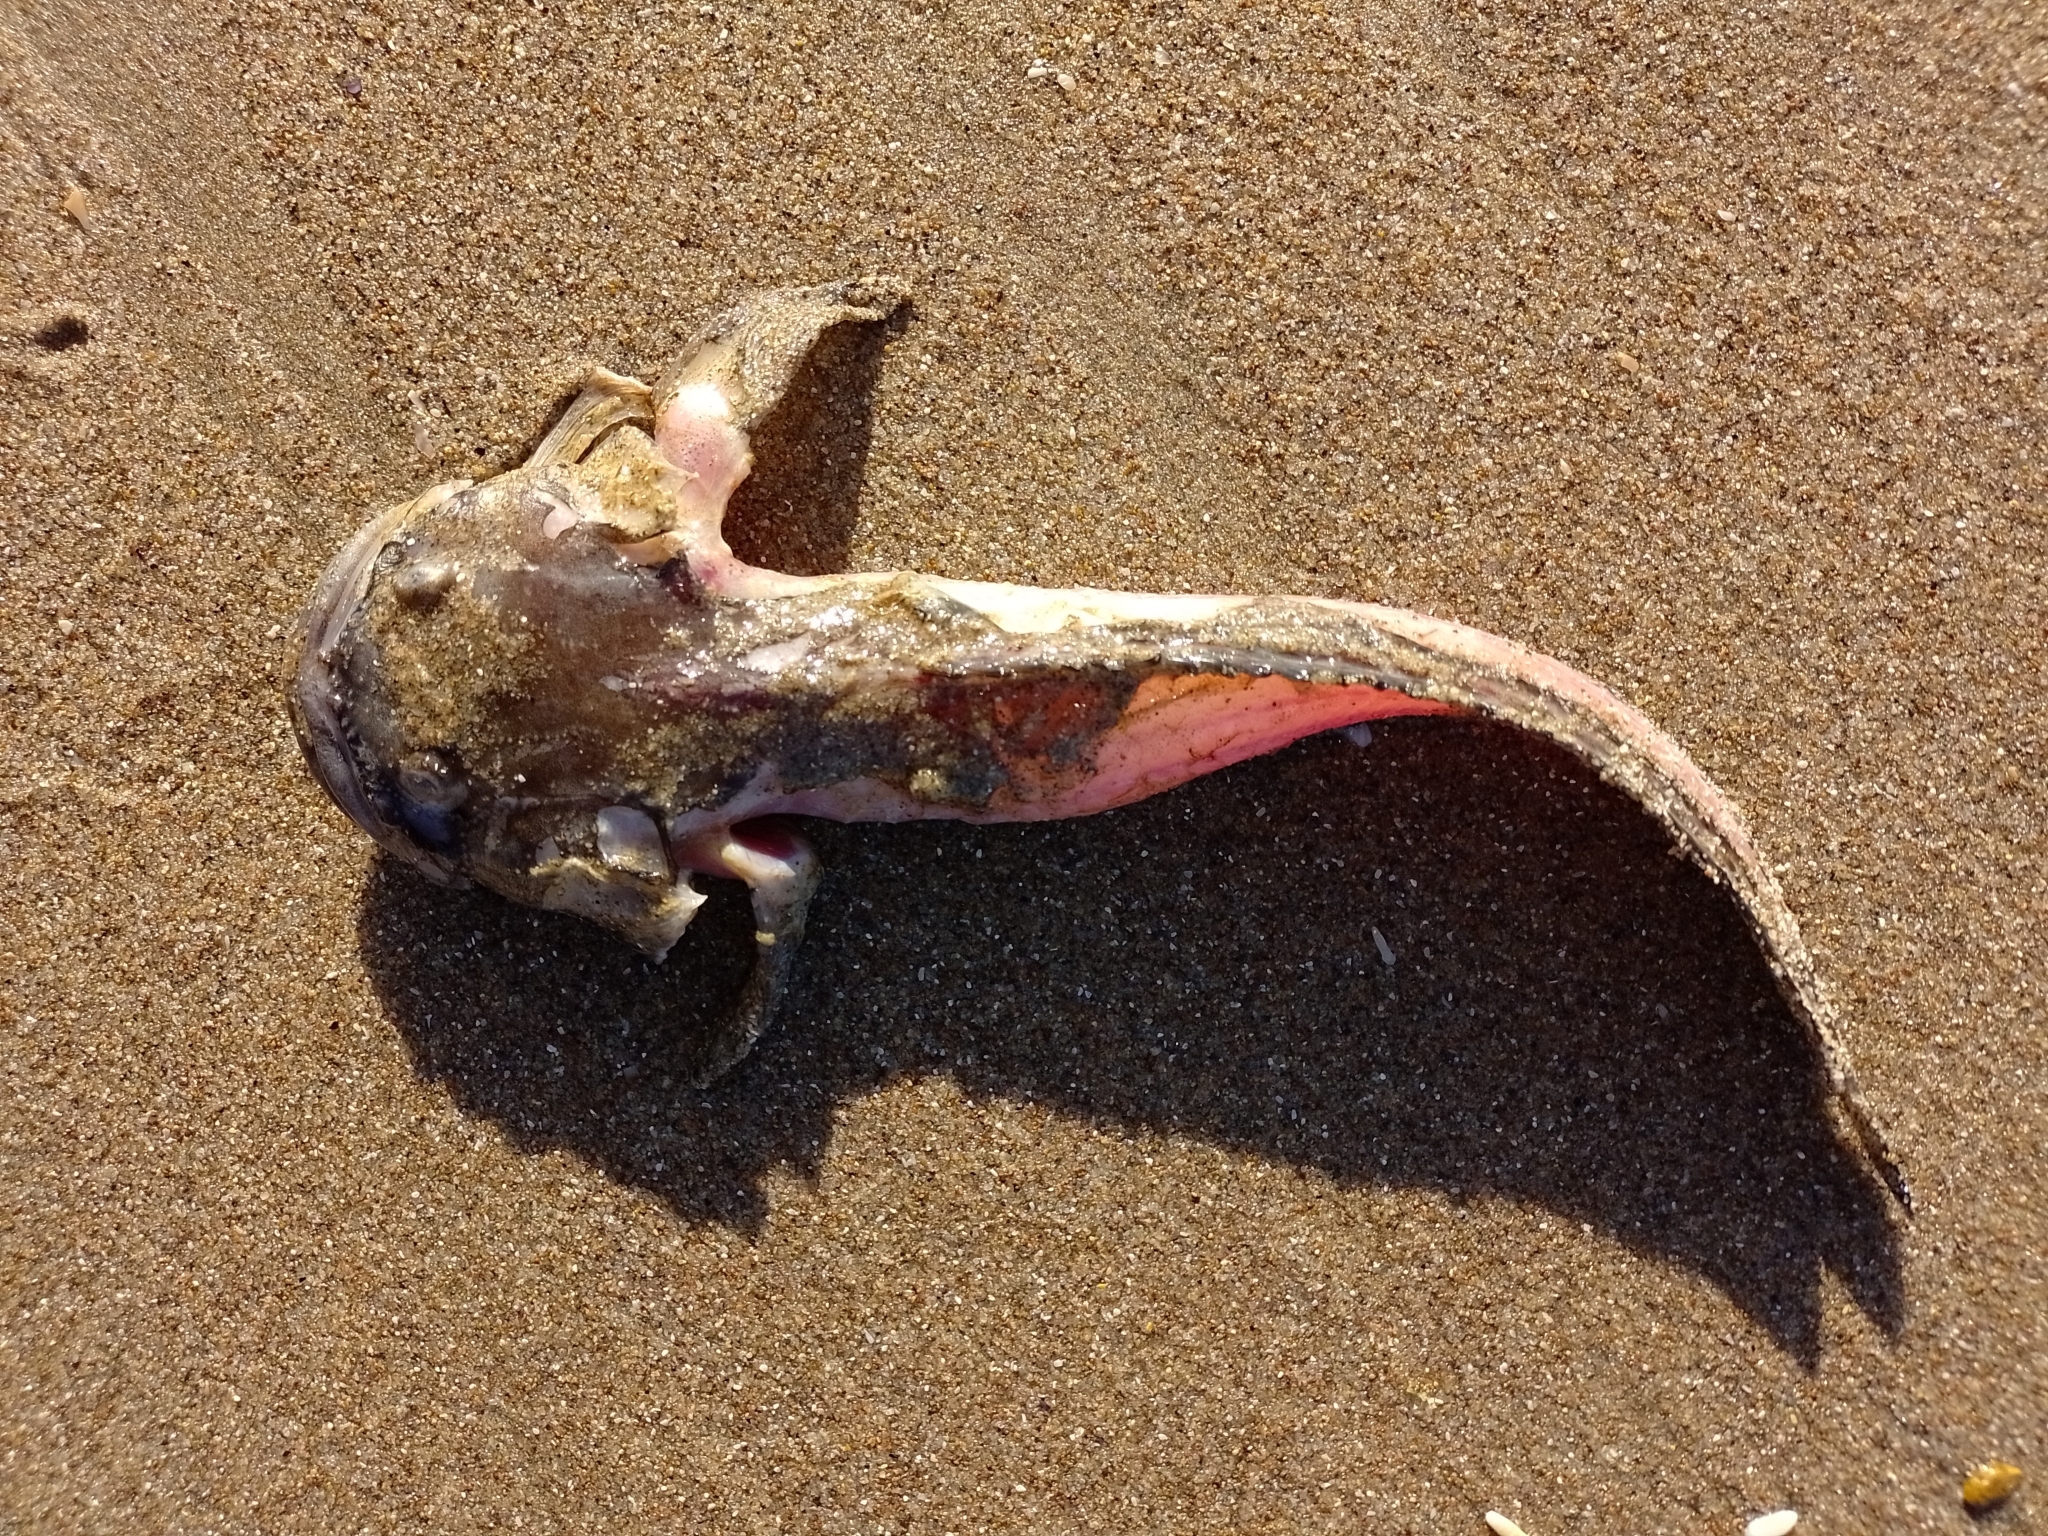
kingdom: Animalia
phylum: Chordata
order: Batrachoidiformes
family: Batrachoididae
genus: Porichthys
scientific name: Porichthys porosissimus
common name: Toadfish
